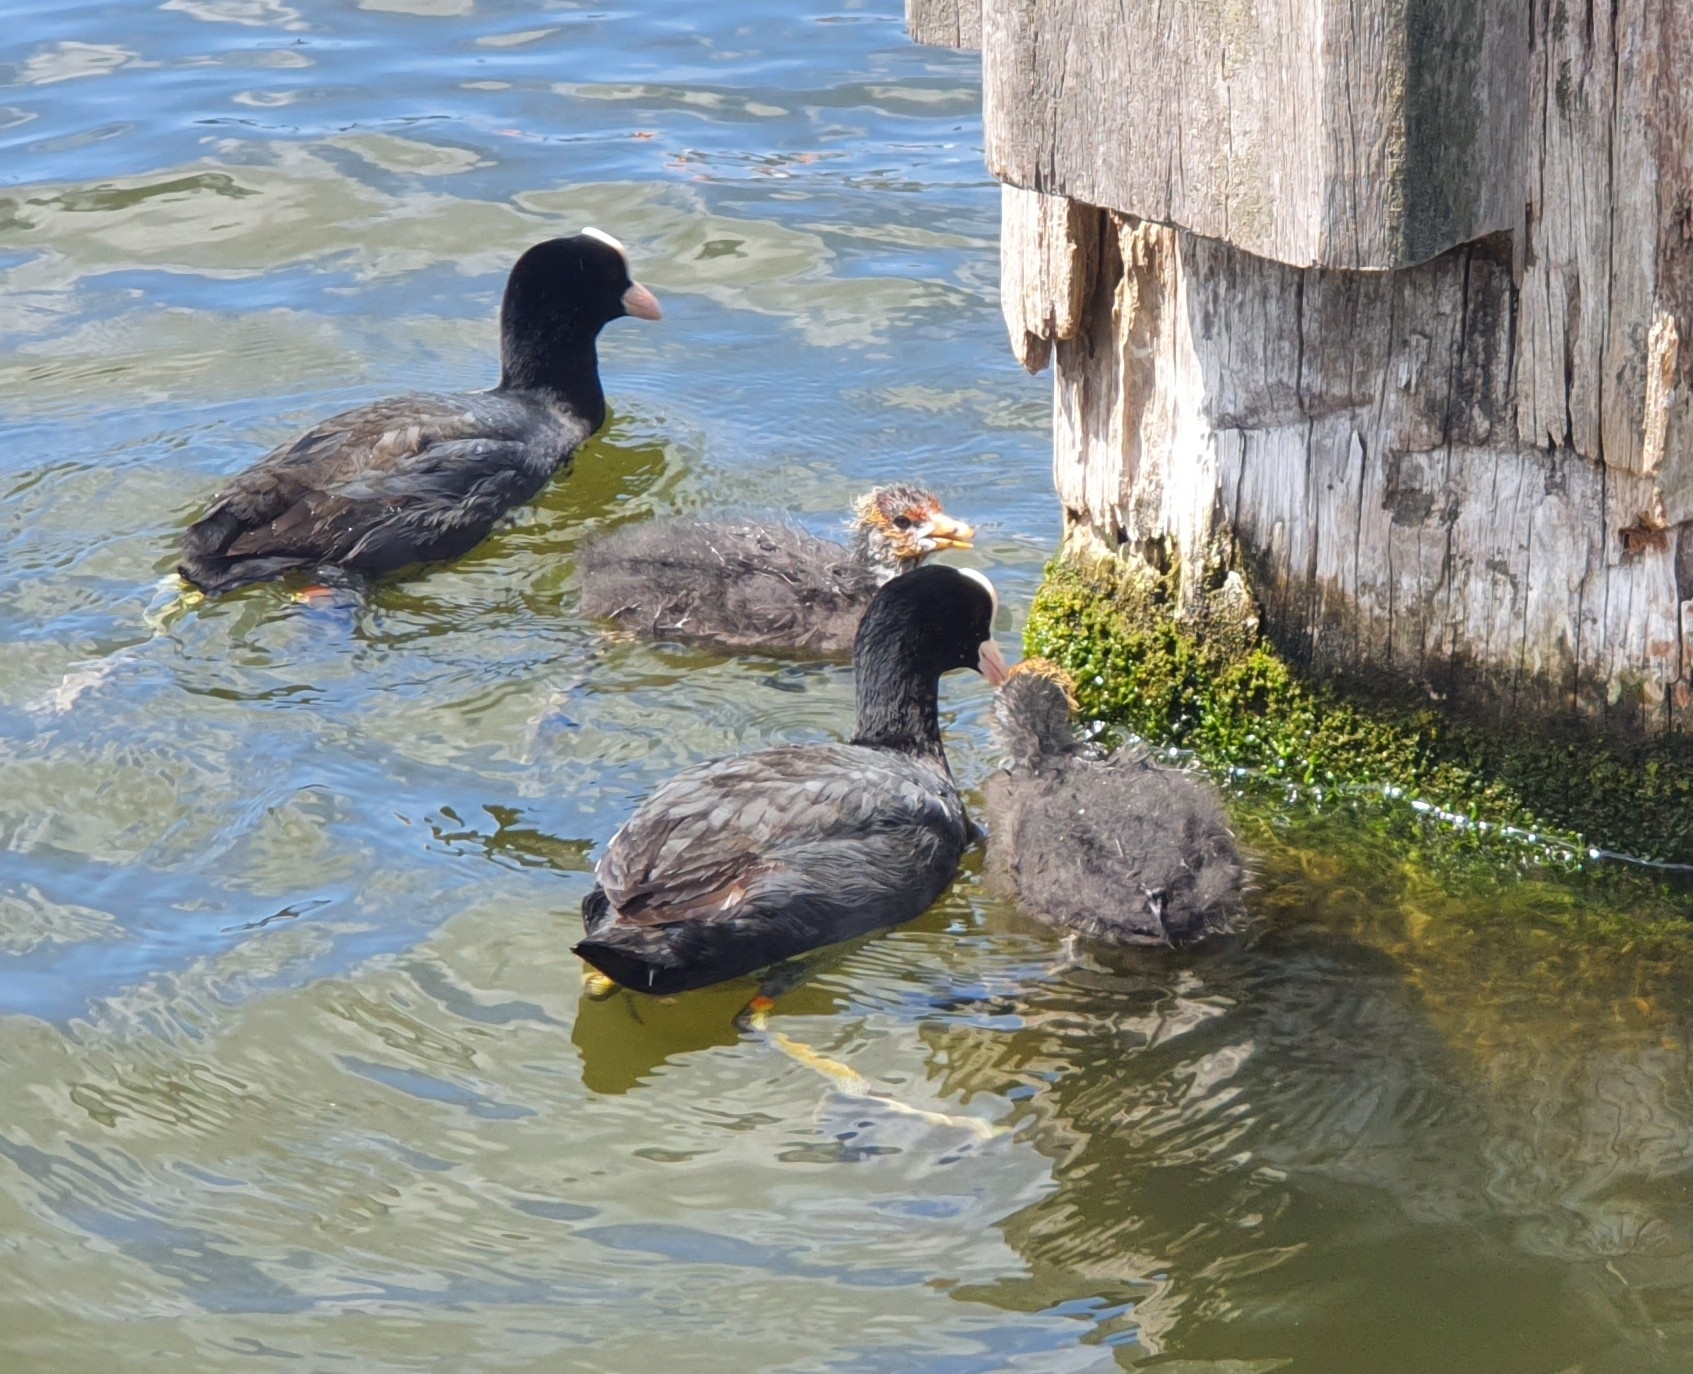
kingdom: Animalia
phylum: Chordata
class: Aves
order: Gruiformes
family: Rallidae
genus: Fulica
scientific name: Fulica atra
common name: Eurasian coot
